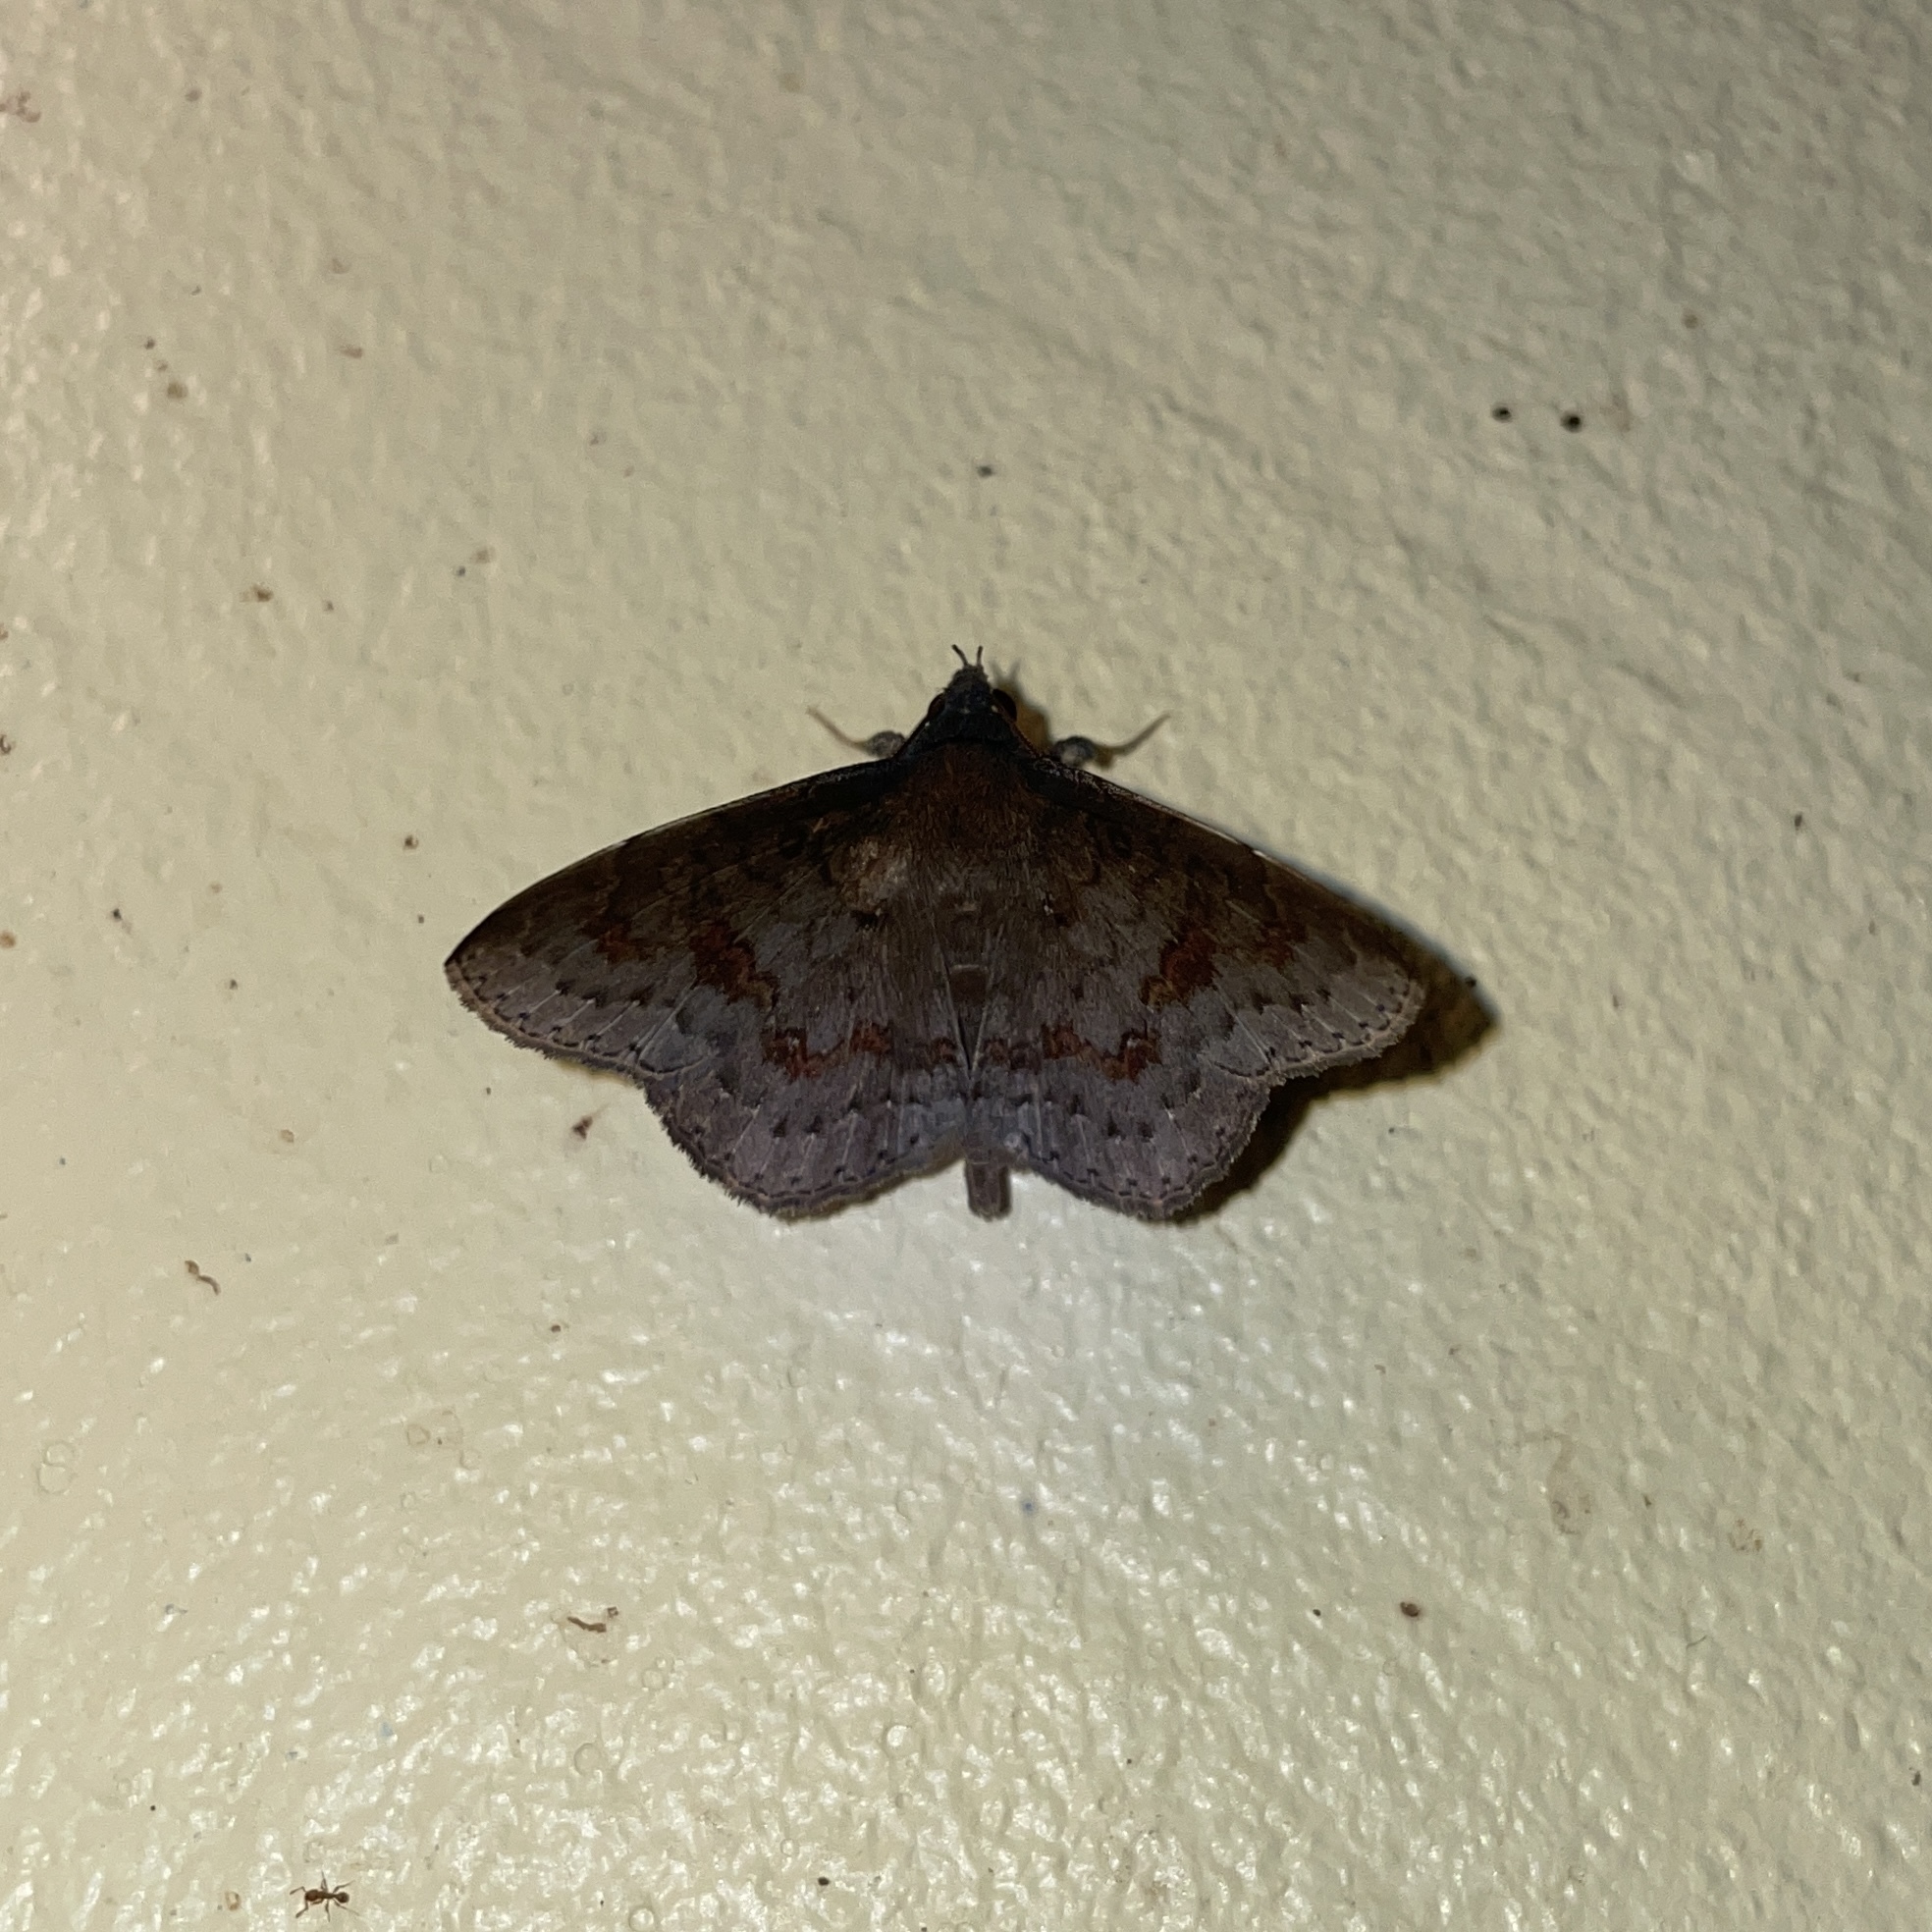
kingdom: Animalia
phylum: Arthropoda
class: Insecta
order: Lepidoptera
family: Erebidae
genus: Ctypansa
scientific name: Ctypansa inconstans
